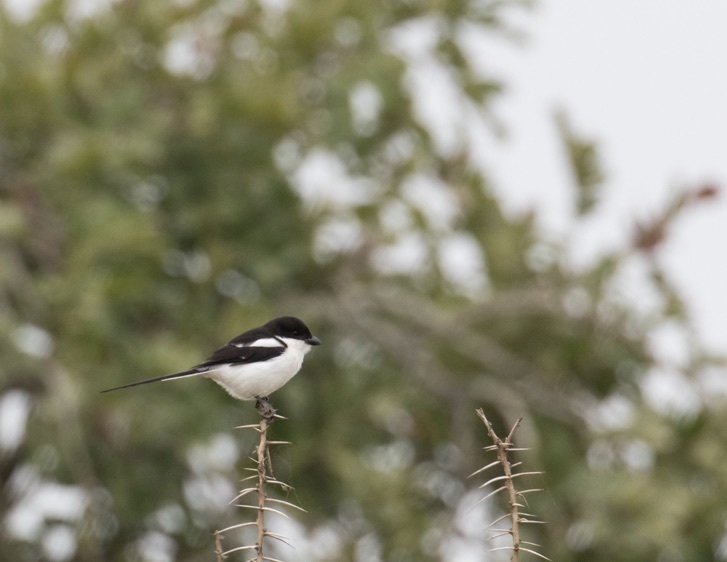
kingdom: Animalia
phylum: Chordata
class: Aves
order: Passeriformes
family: Laniidae
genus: Lanius
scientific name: Lanius humeralis
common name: Northern fiscal
